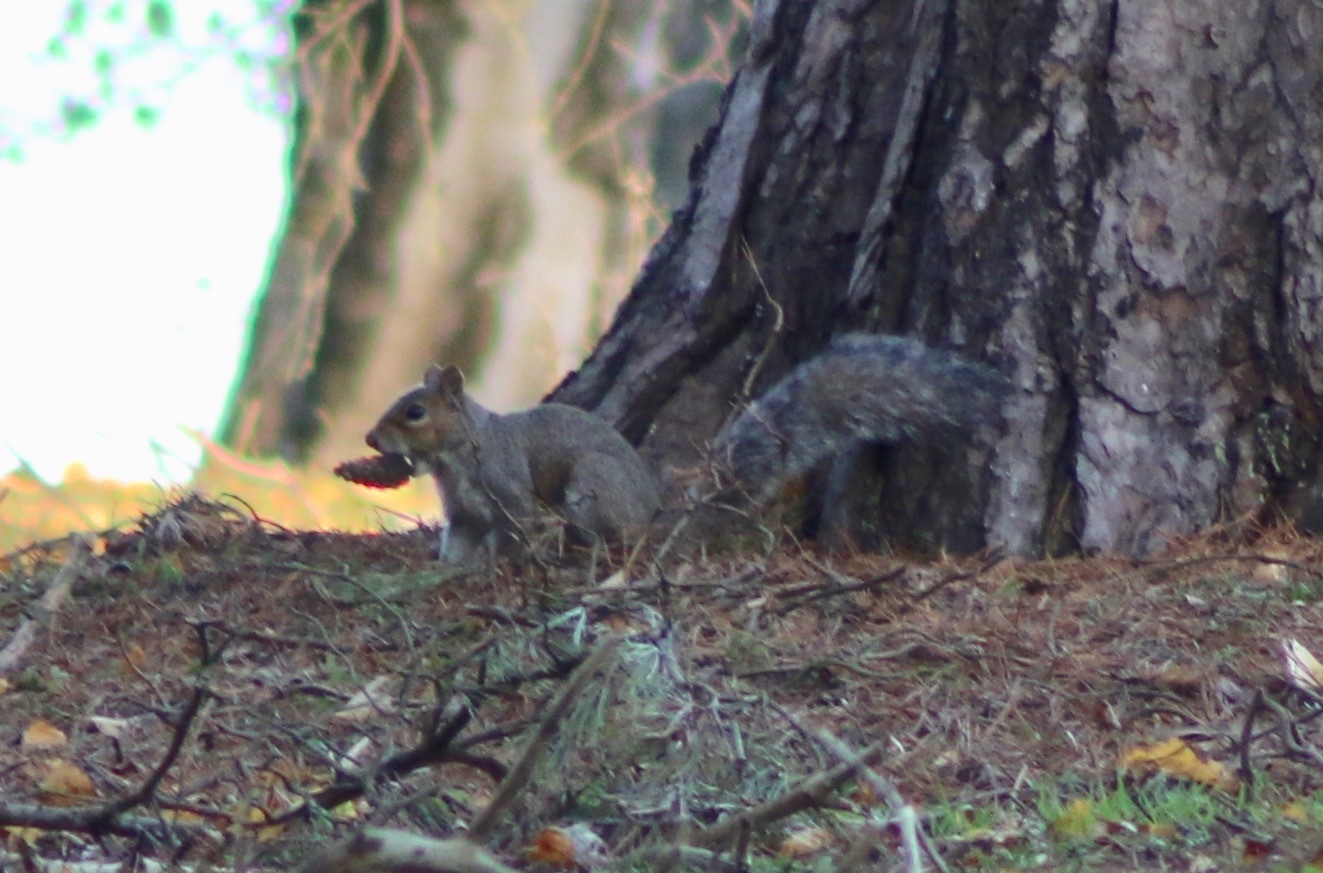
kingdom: Animalia
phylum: Chordata
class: Mammalia
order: Rodentia
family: Sciuridae
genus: Sciurus
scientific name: Sciurus carolinensis
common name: Eastern gray squirrel
